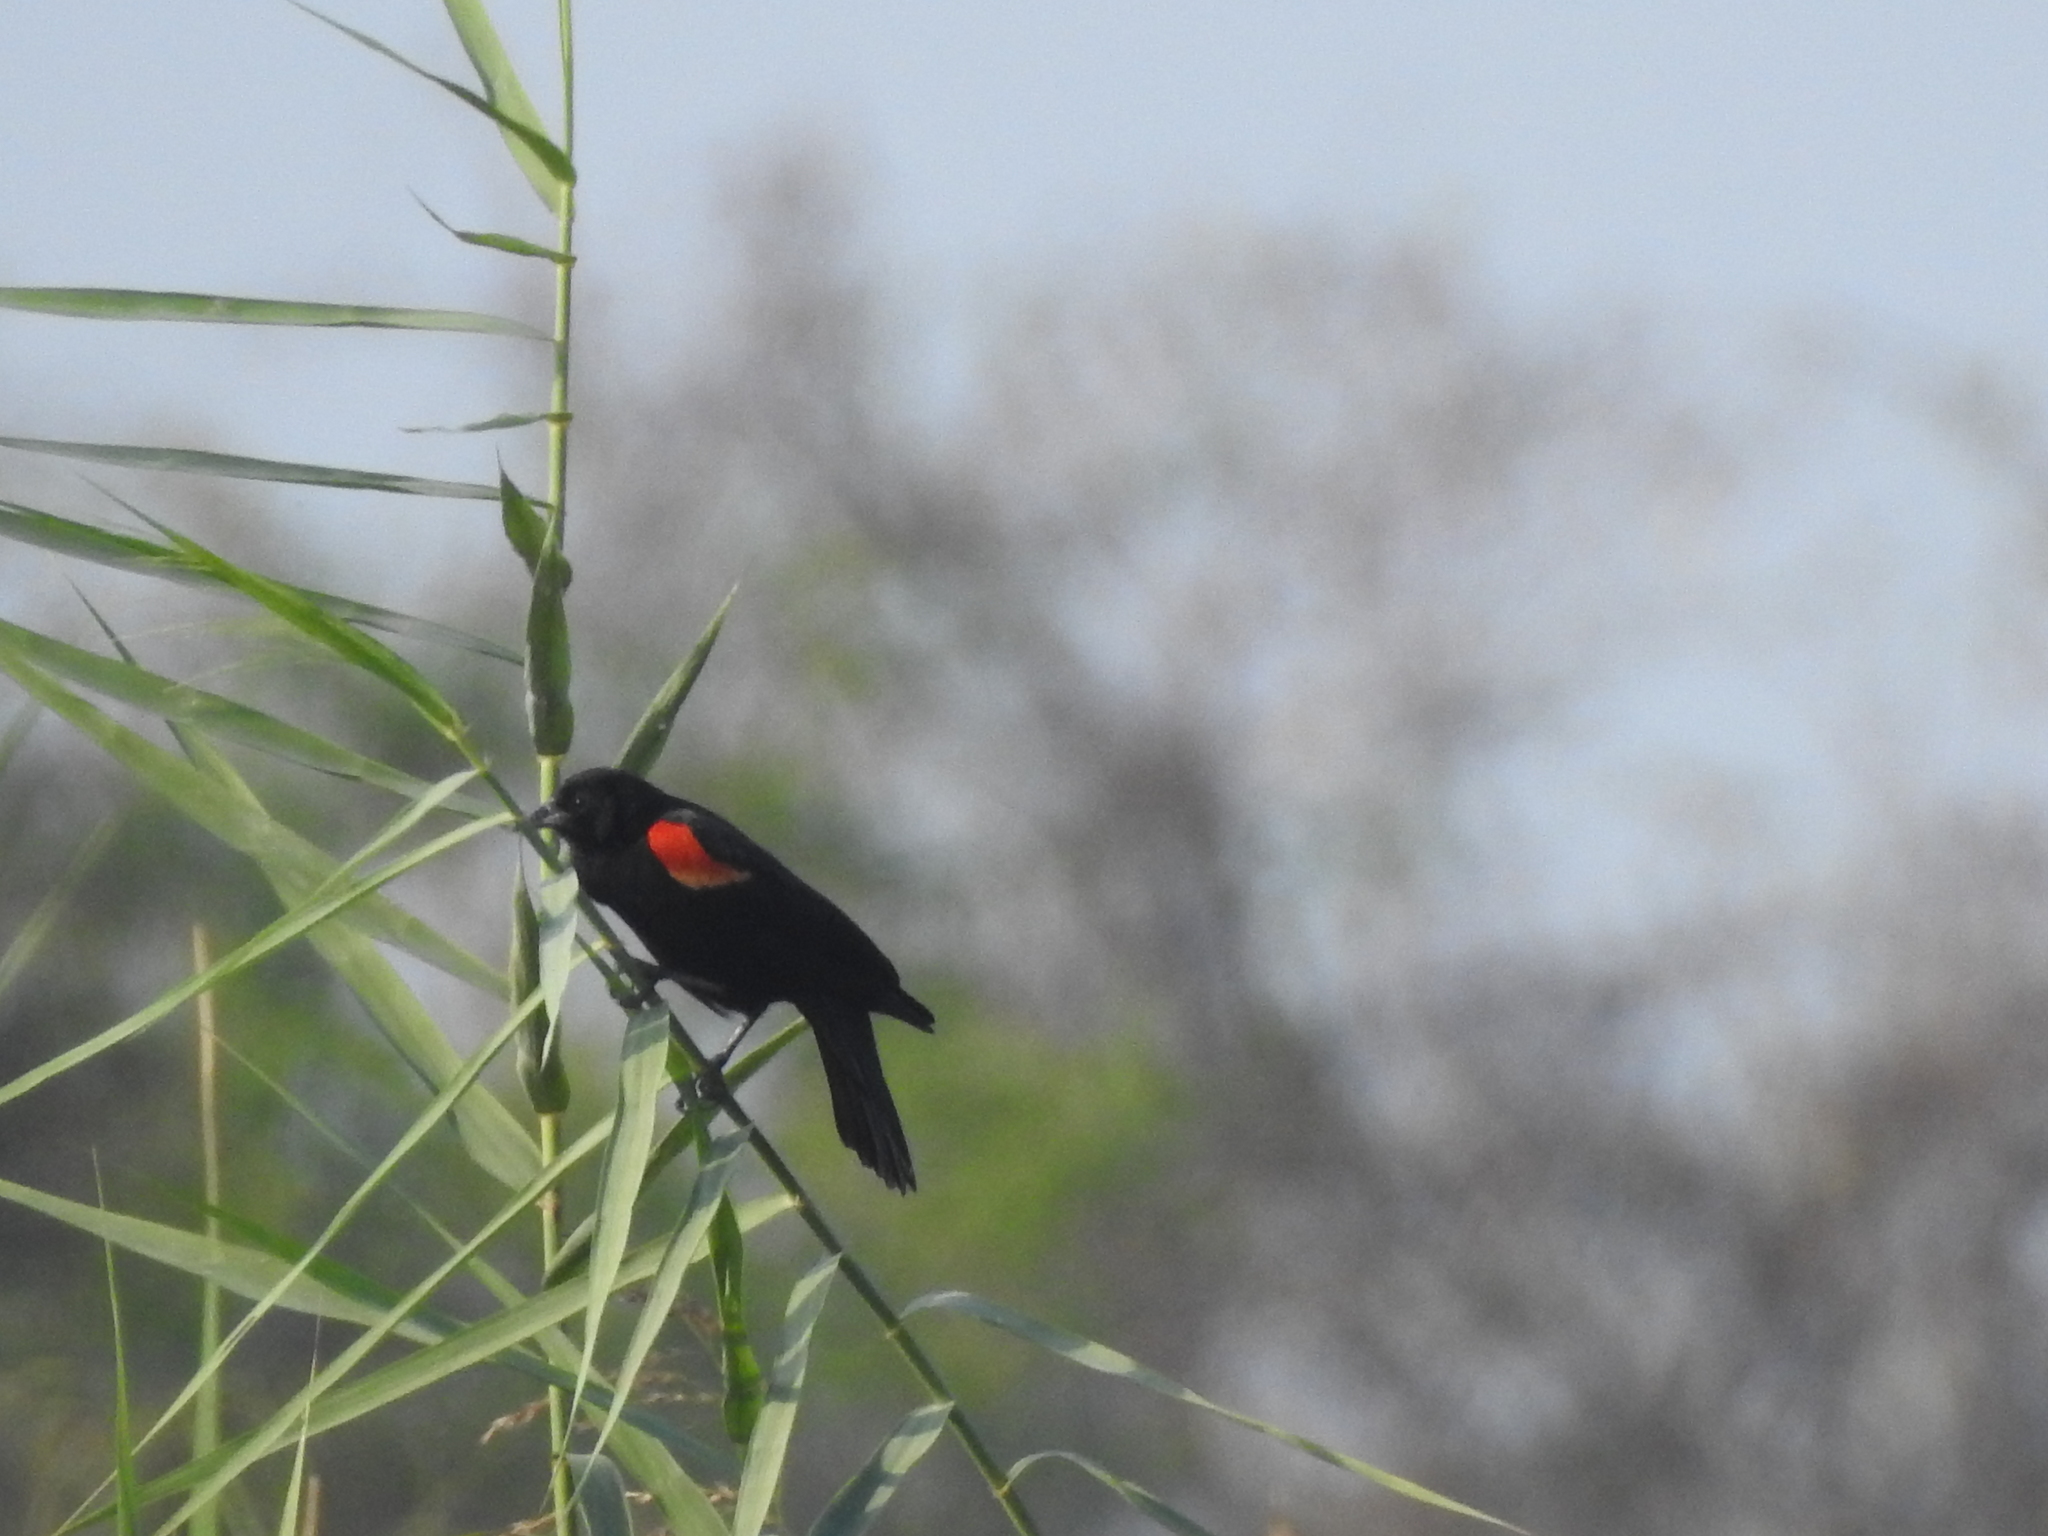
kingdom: Animalia
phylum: Chordata
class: Aves
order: Passeriformes
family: Icteridae
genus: Agelaius
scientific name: Agelaius phoeniceus
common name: Red-winged blackbird
